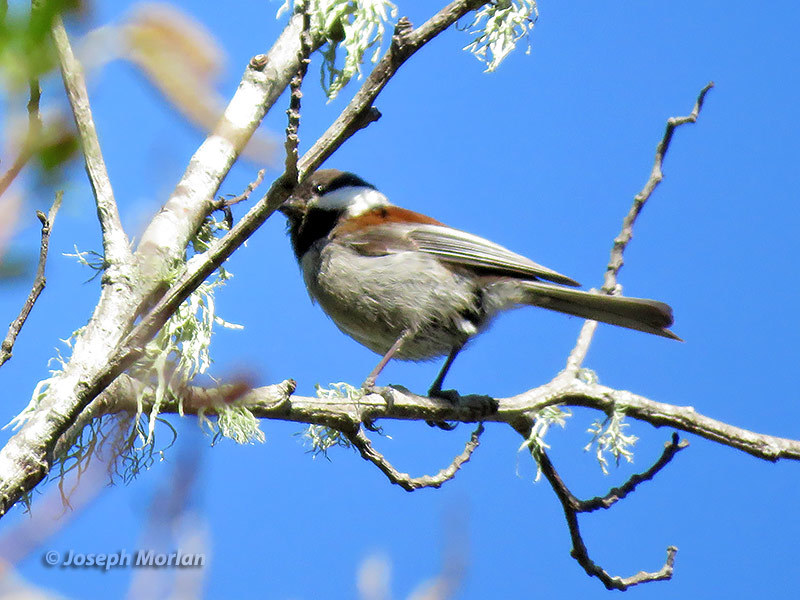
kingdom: Animalia
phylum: Chordata
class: Aves
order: Passeriformes
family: Paridae
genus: Poecile
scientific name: Poecile rufescens
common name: Chestnut-backed chickadee
